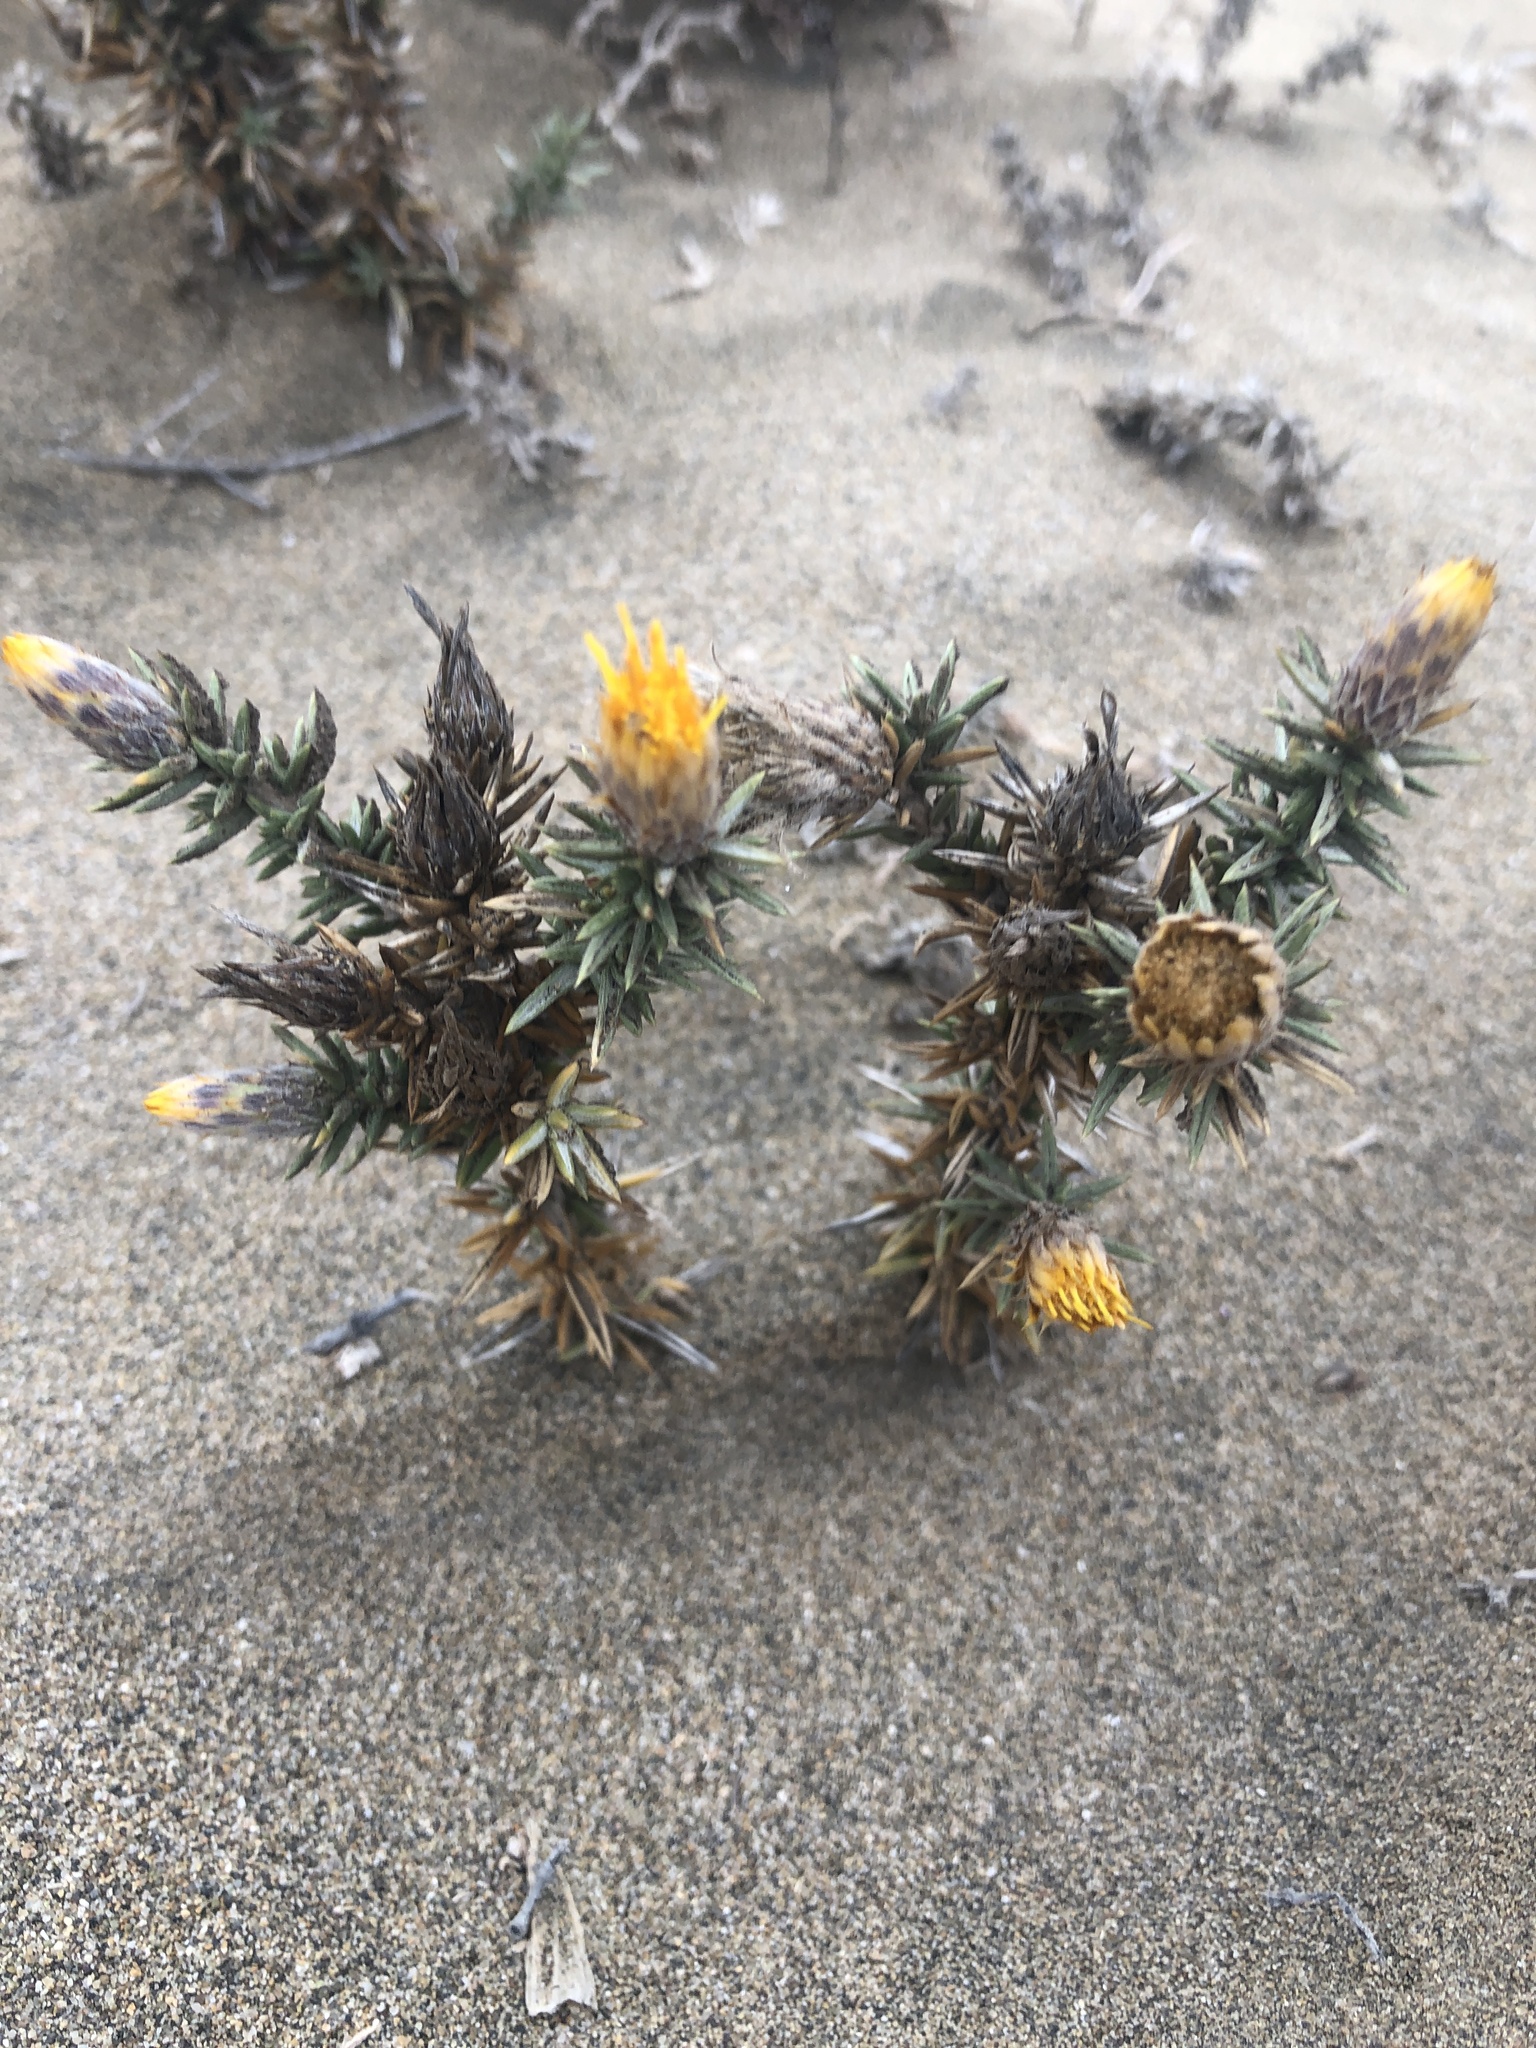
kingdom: Plantae
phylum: Tracheophyta
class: Magnoliopsida
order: Asterales
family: Asteraceae
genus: Chuquiraga
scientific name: Chuquiraga ulicina
